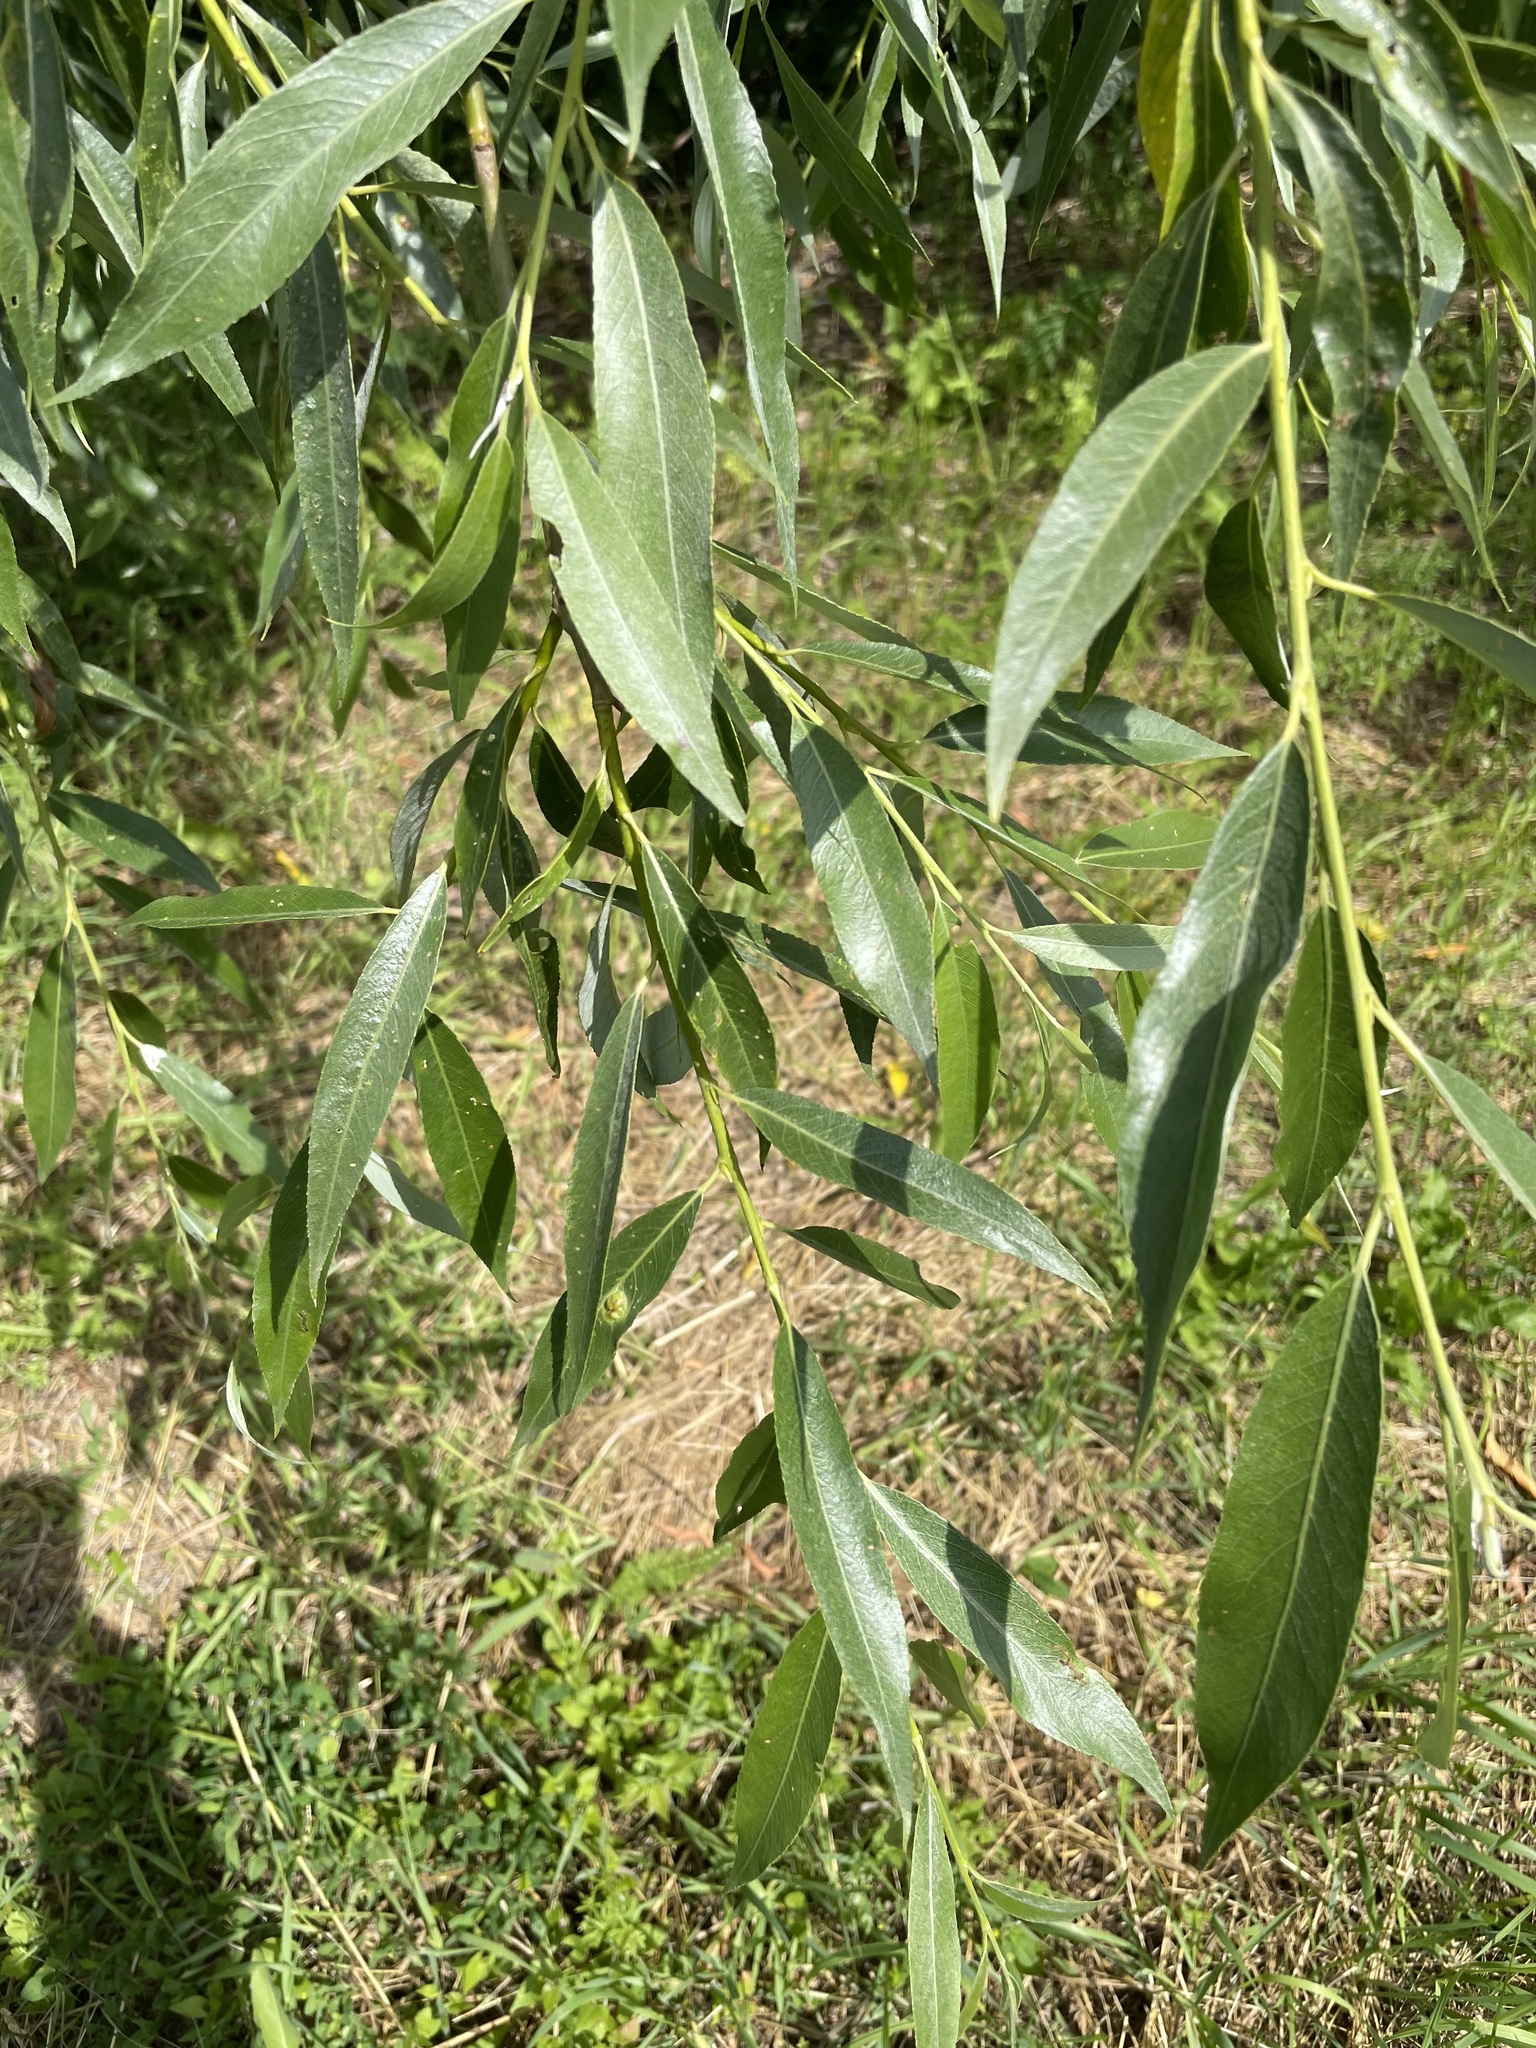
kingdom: Plantae
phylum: Tracheophyta
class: Magnoliopsida
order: Malpighiales
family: Salicaceae
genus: Salix
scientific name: Salix alba
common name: White willow
